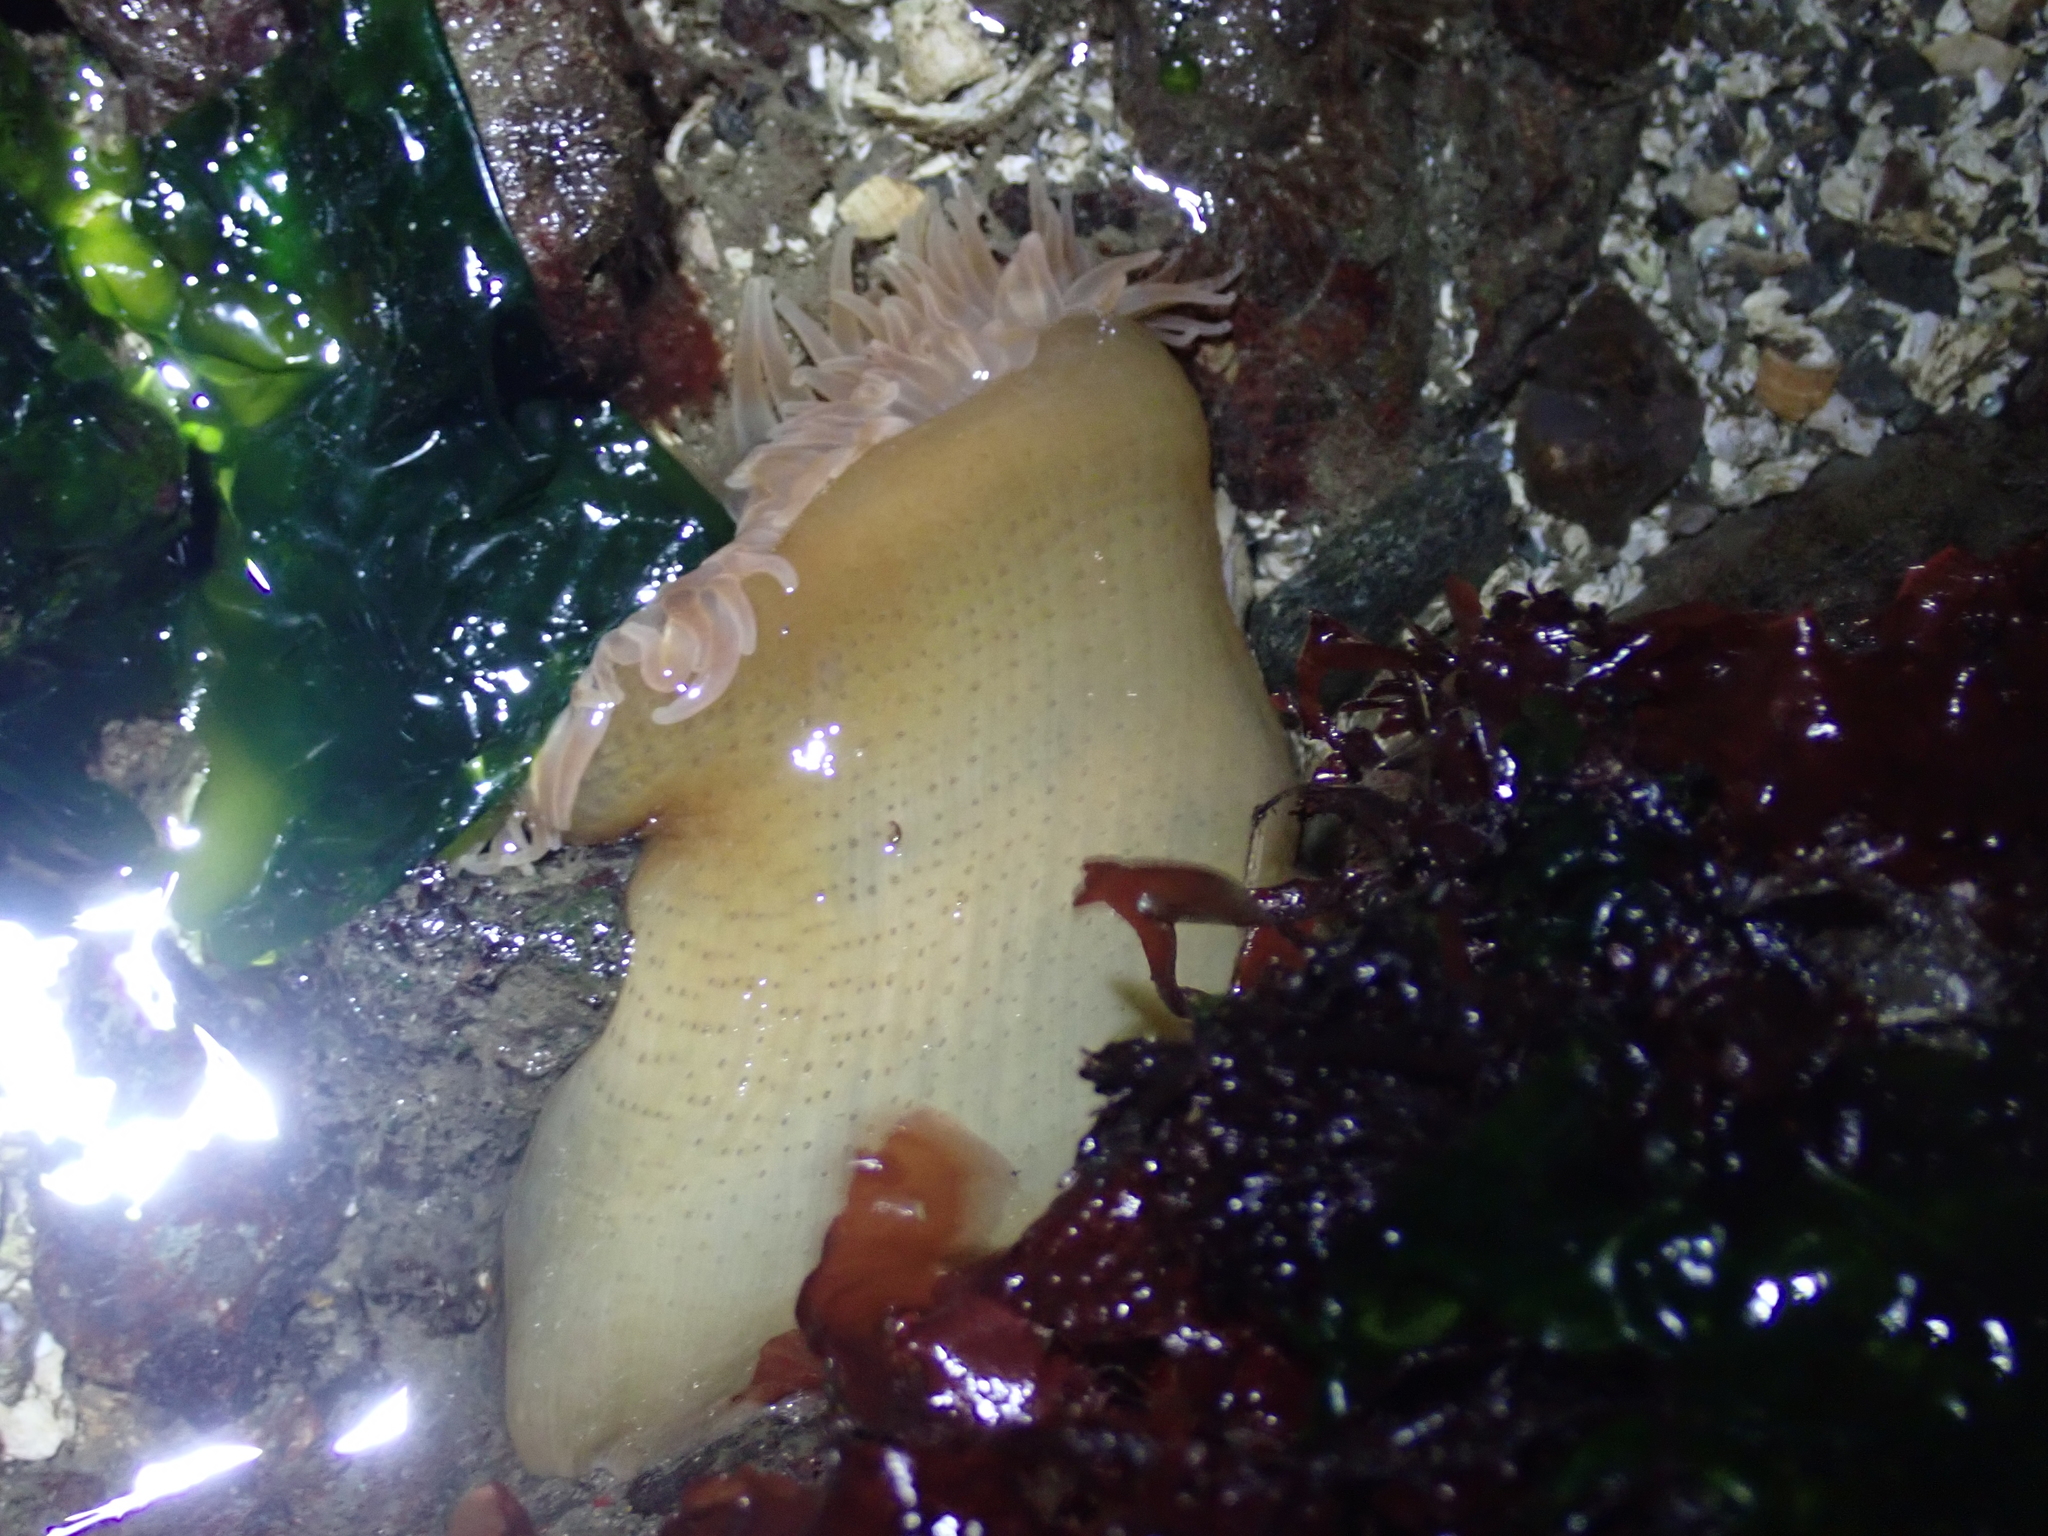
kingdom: Animalia
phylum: Cnidaria
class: Anthozoa
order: Actiniaria
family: Actiniidae
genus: Urticina
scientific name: Urticina grebelnyi
